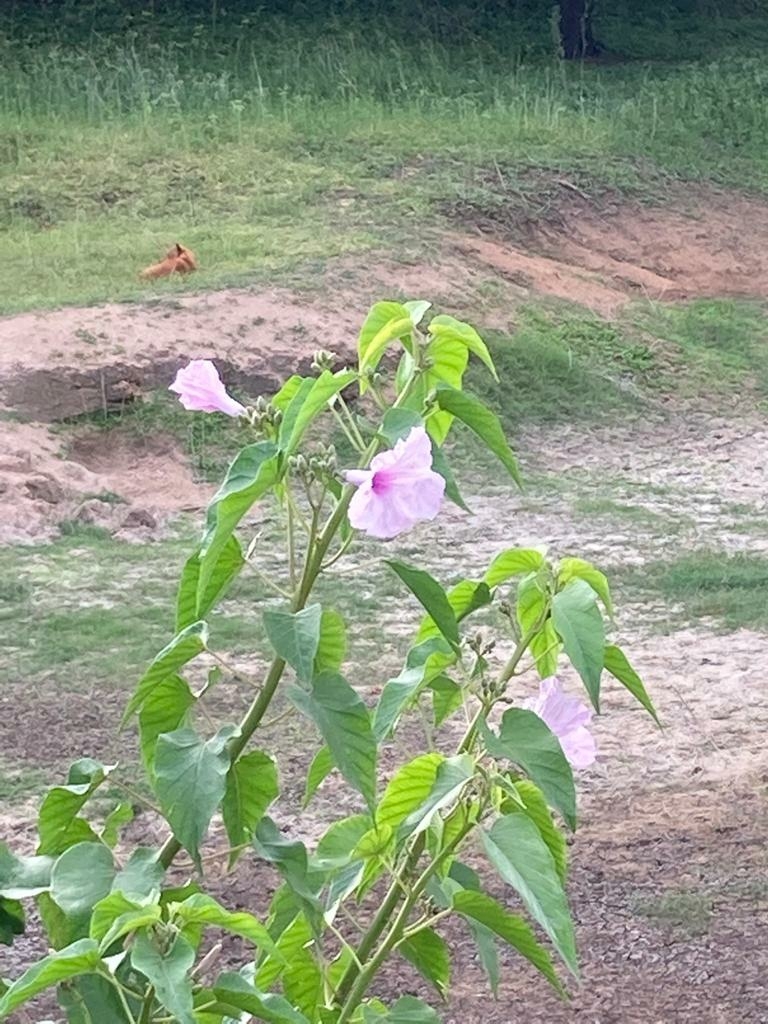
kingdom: Plantae
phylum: Tracheophyta
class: Magnoliopsida
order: Solanales
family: Convolvulaceae
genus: Ipomoea
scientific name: Ipomoea carnea
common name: Morning-glory
